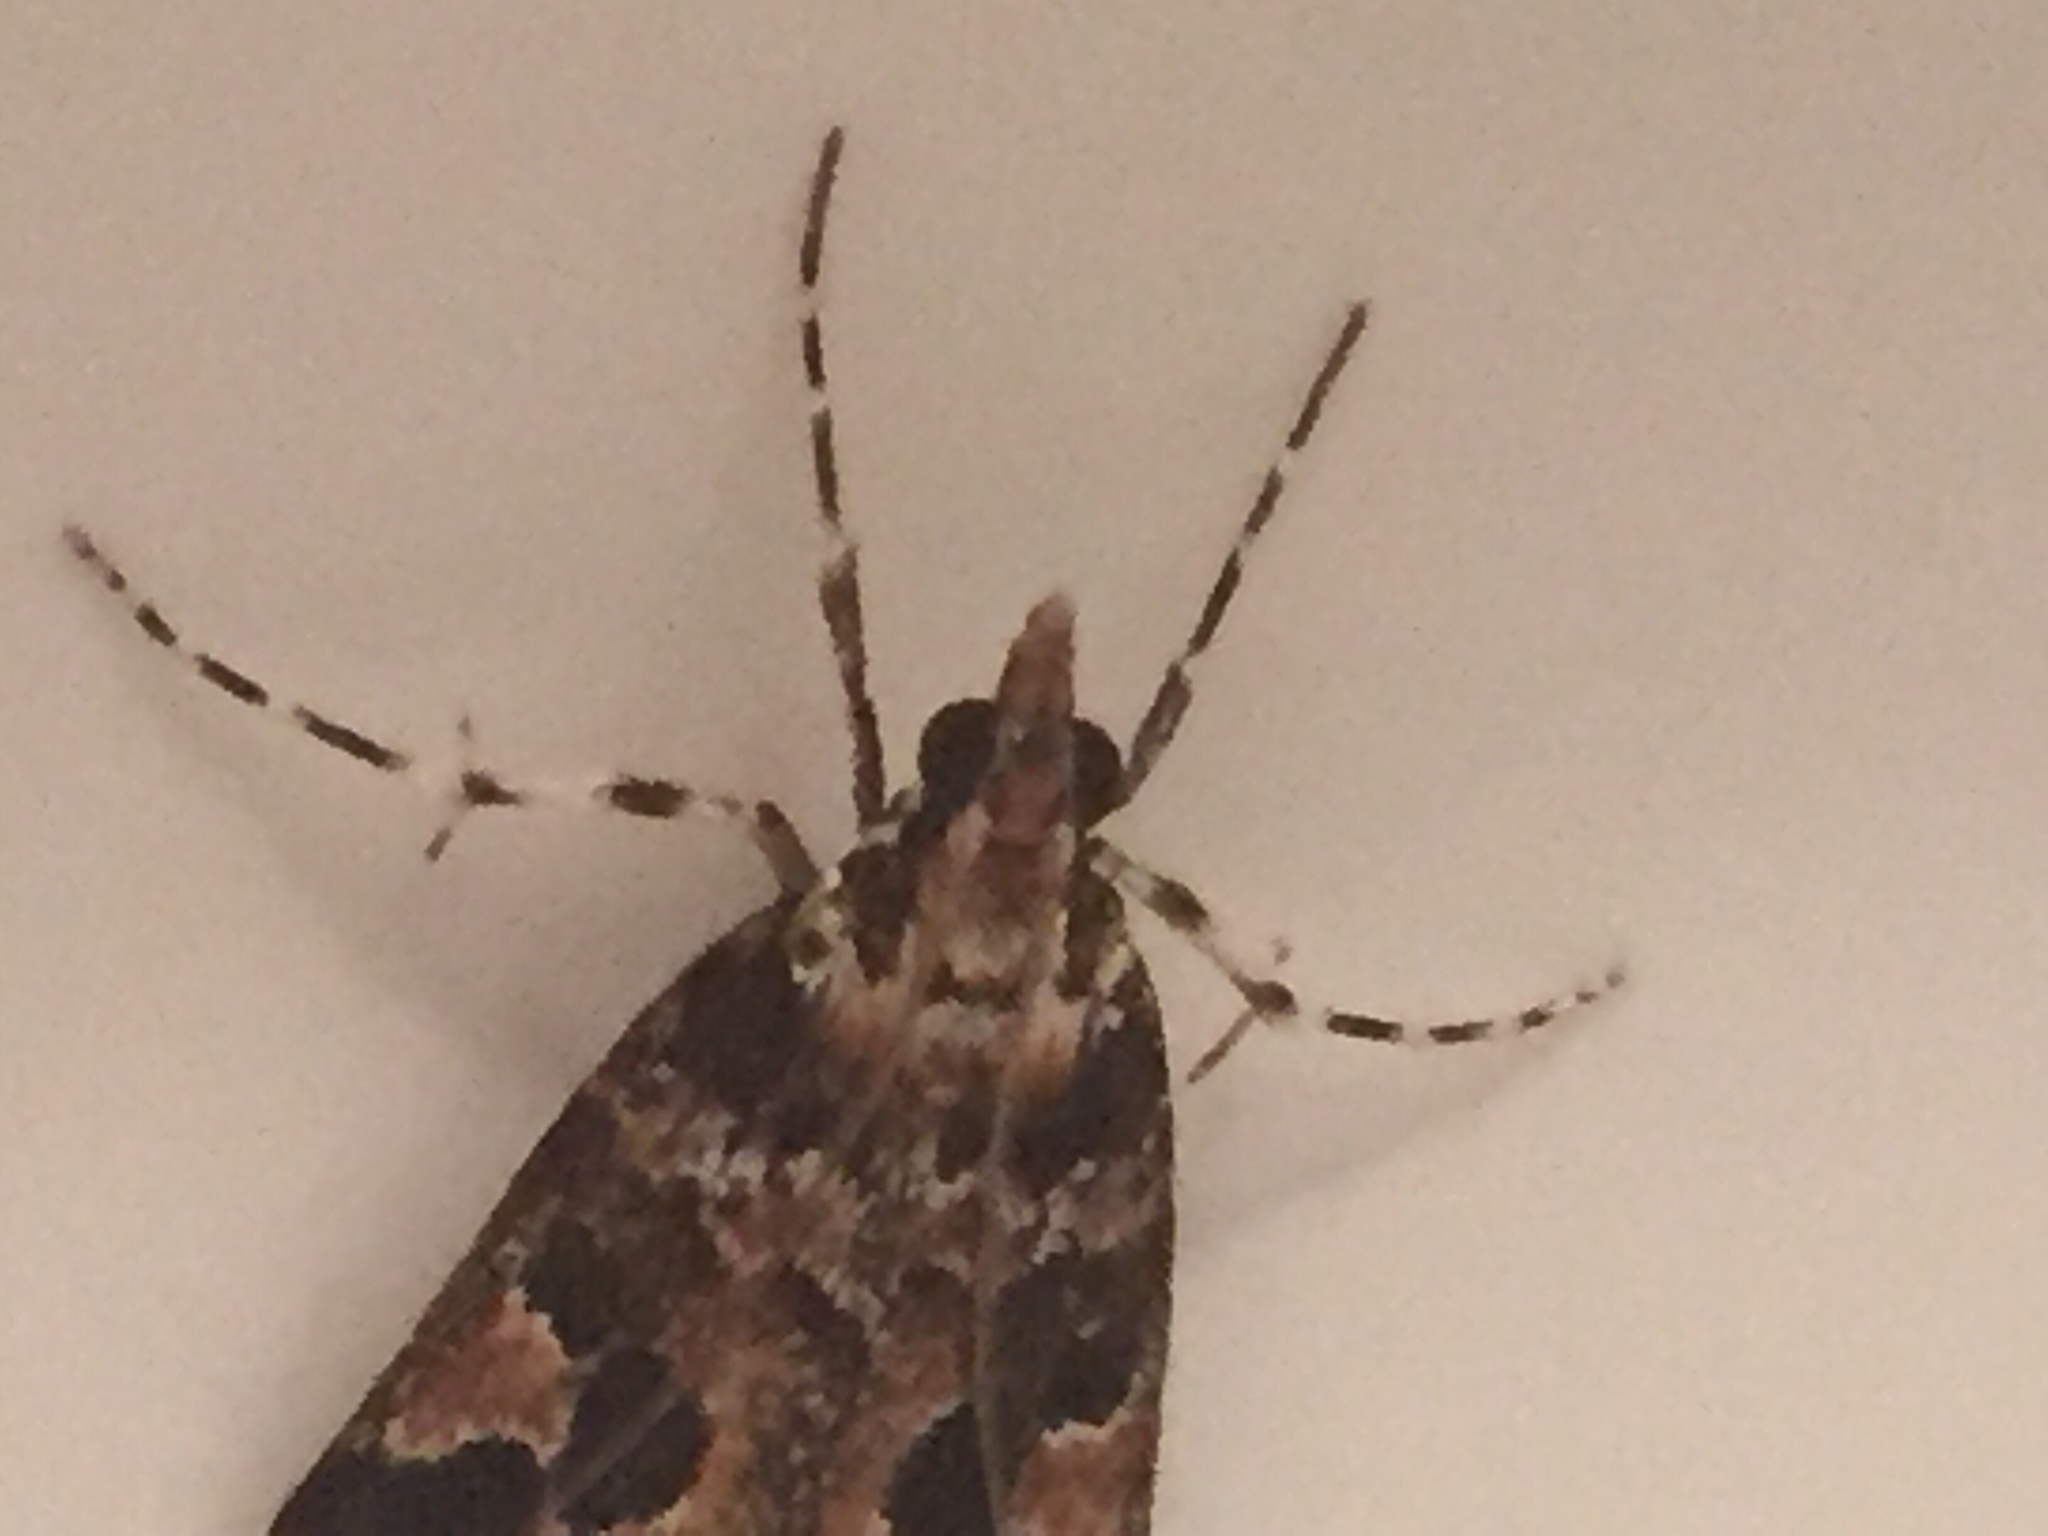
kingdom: Animalia
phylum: Arthropoda
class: Insecta
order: Lepidoptera
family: Crambidae
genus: Scoparia
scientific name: Scoparia ustimacula
